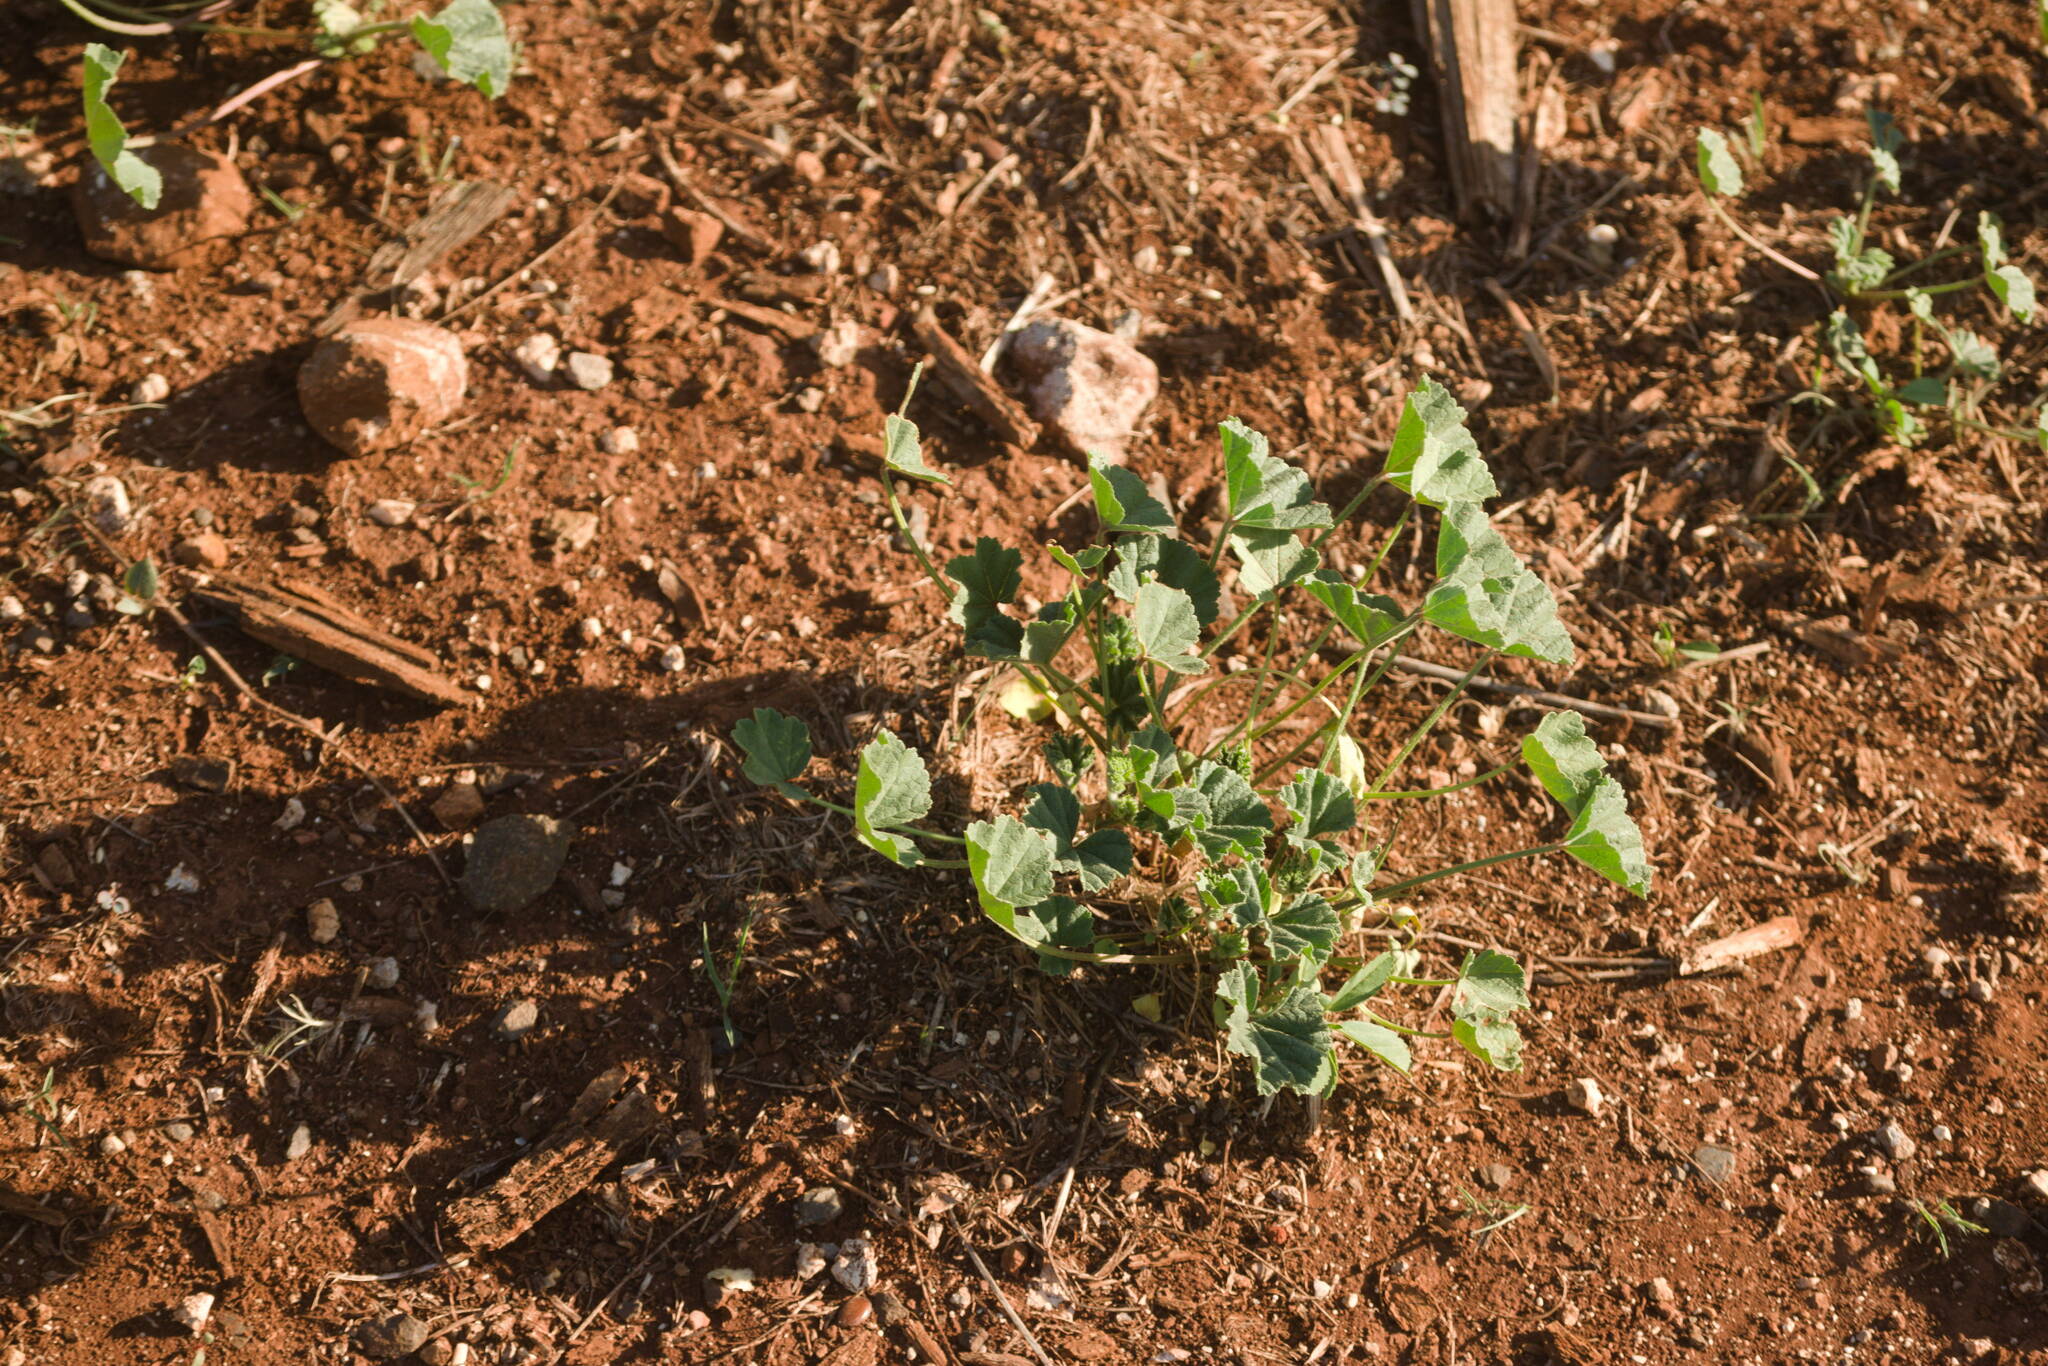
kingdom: Plantae
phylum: Tracheophyta
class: Magnoliopsida
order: Malvales
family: Malvaceae
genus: Malva
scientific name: Malva parviflora
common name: Least mallow
